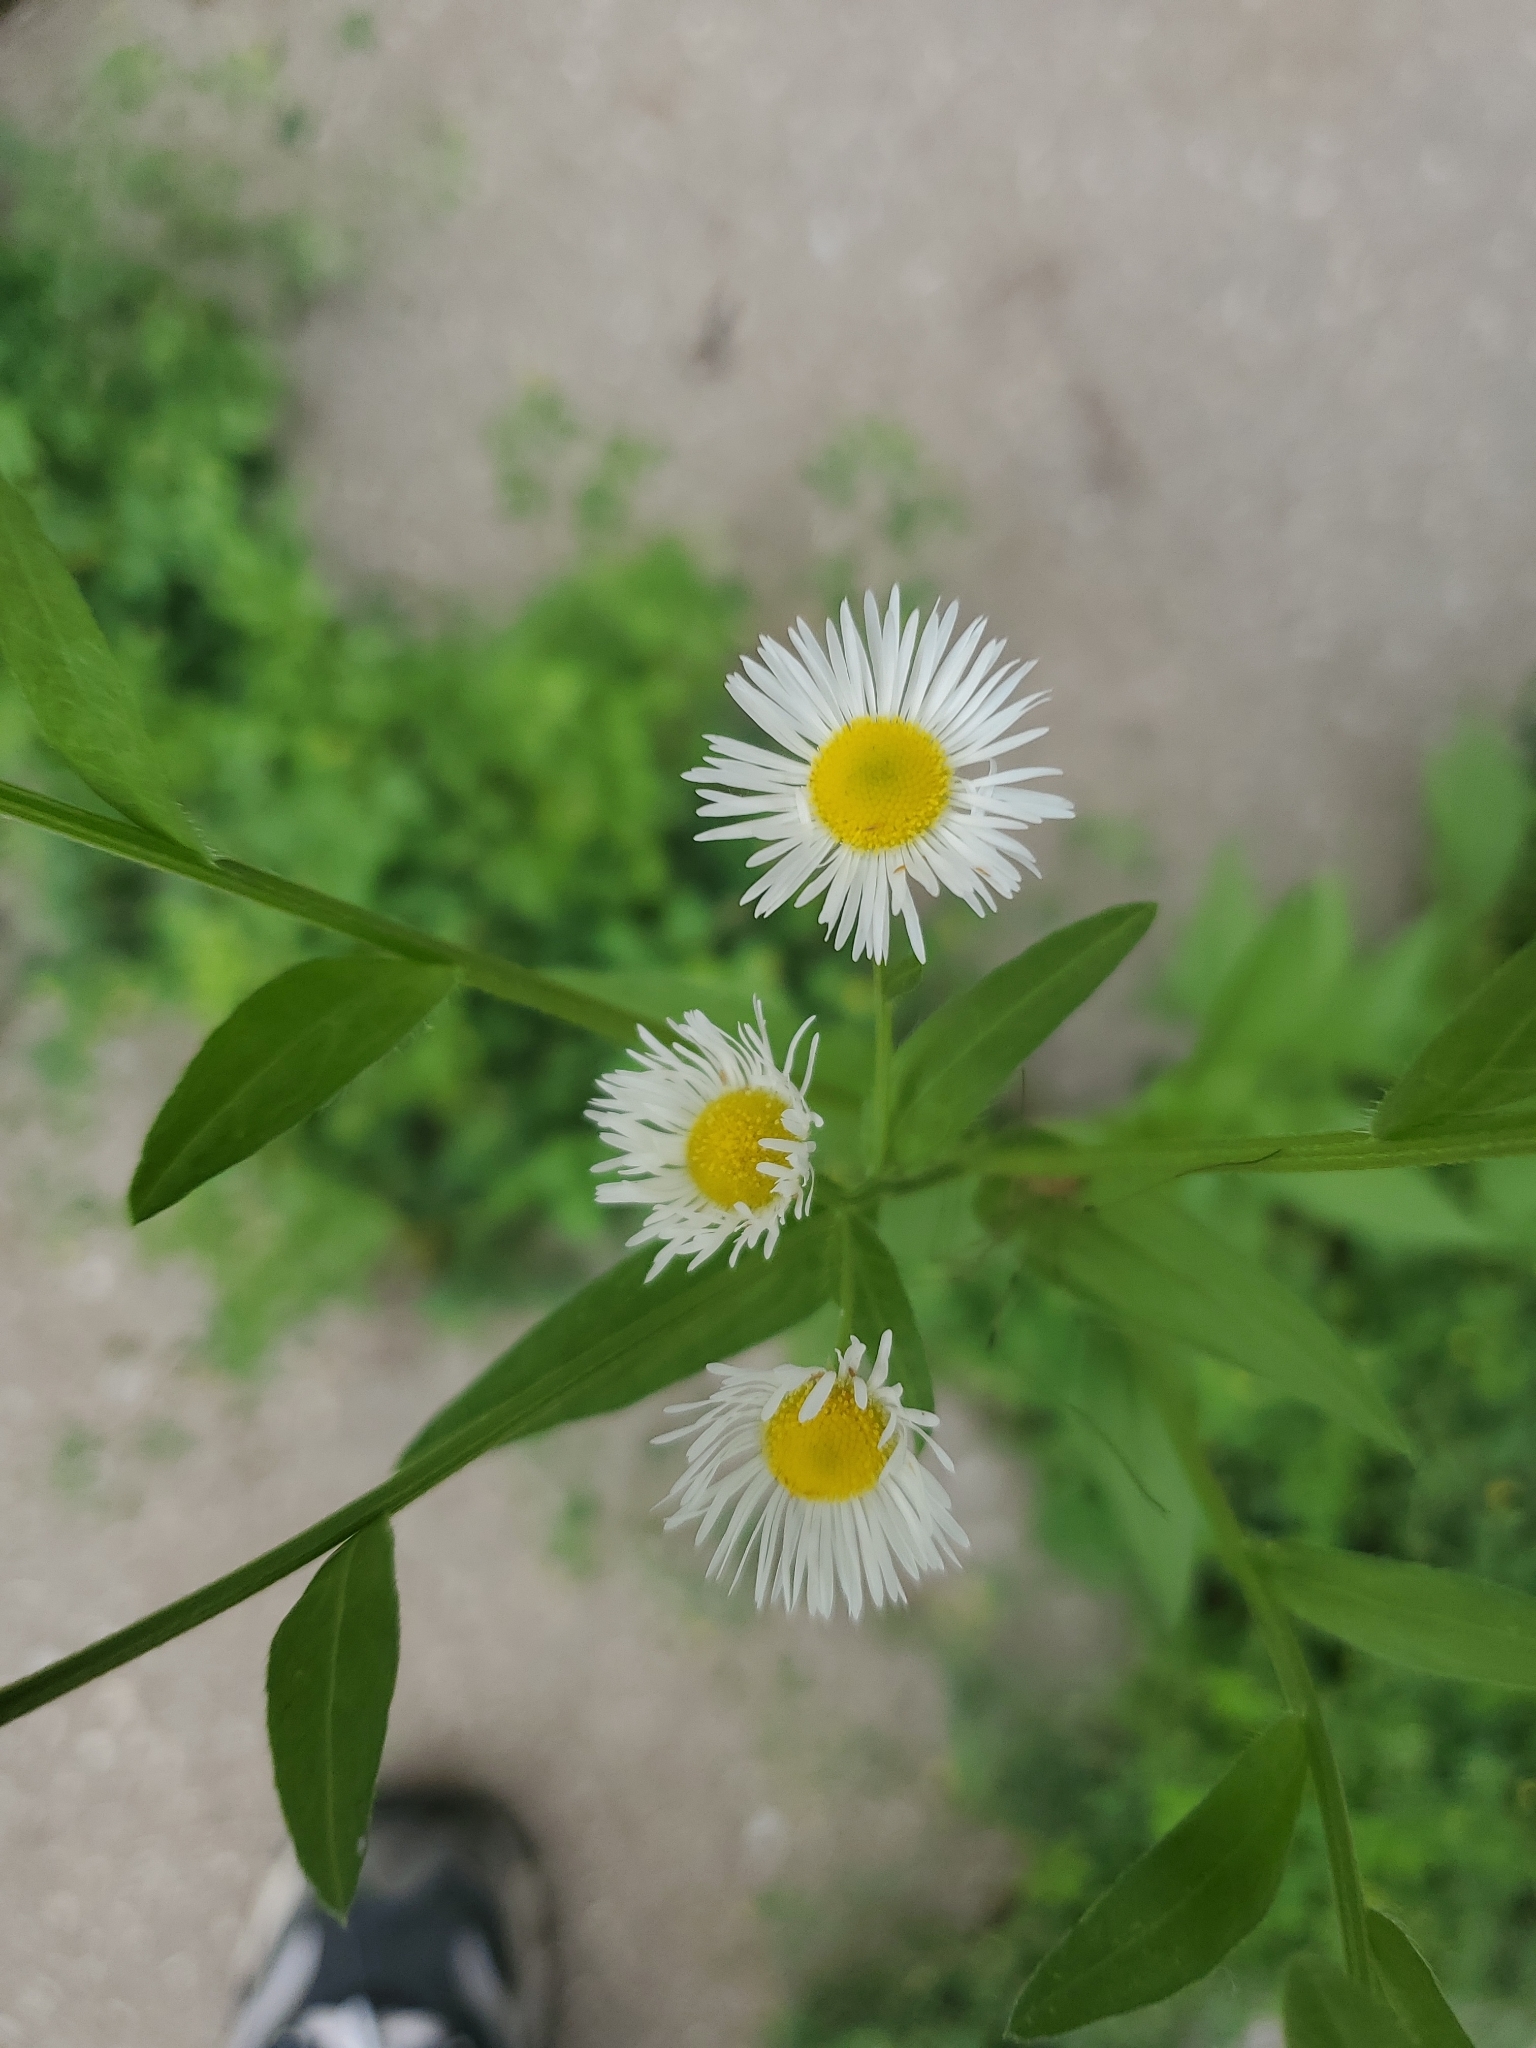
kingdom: Plantae
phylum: Tracheophyta
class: Magnoliopsida
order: Asterales
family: Asteraceae
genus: Erigeron
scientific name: Erigeron annuus
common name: Tall fleabane
